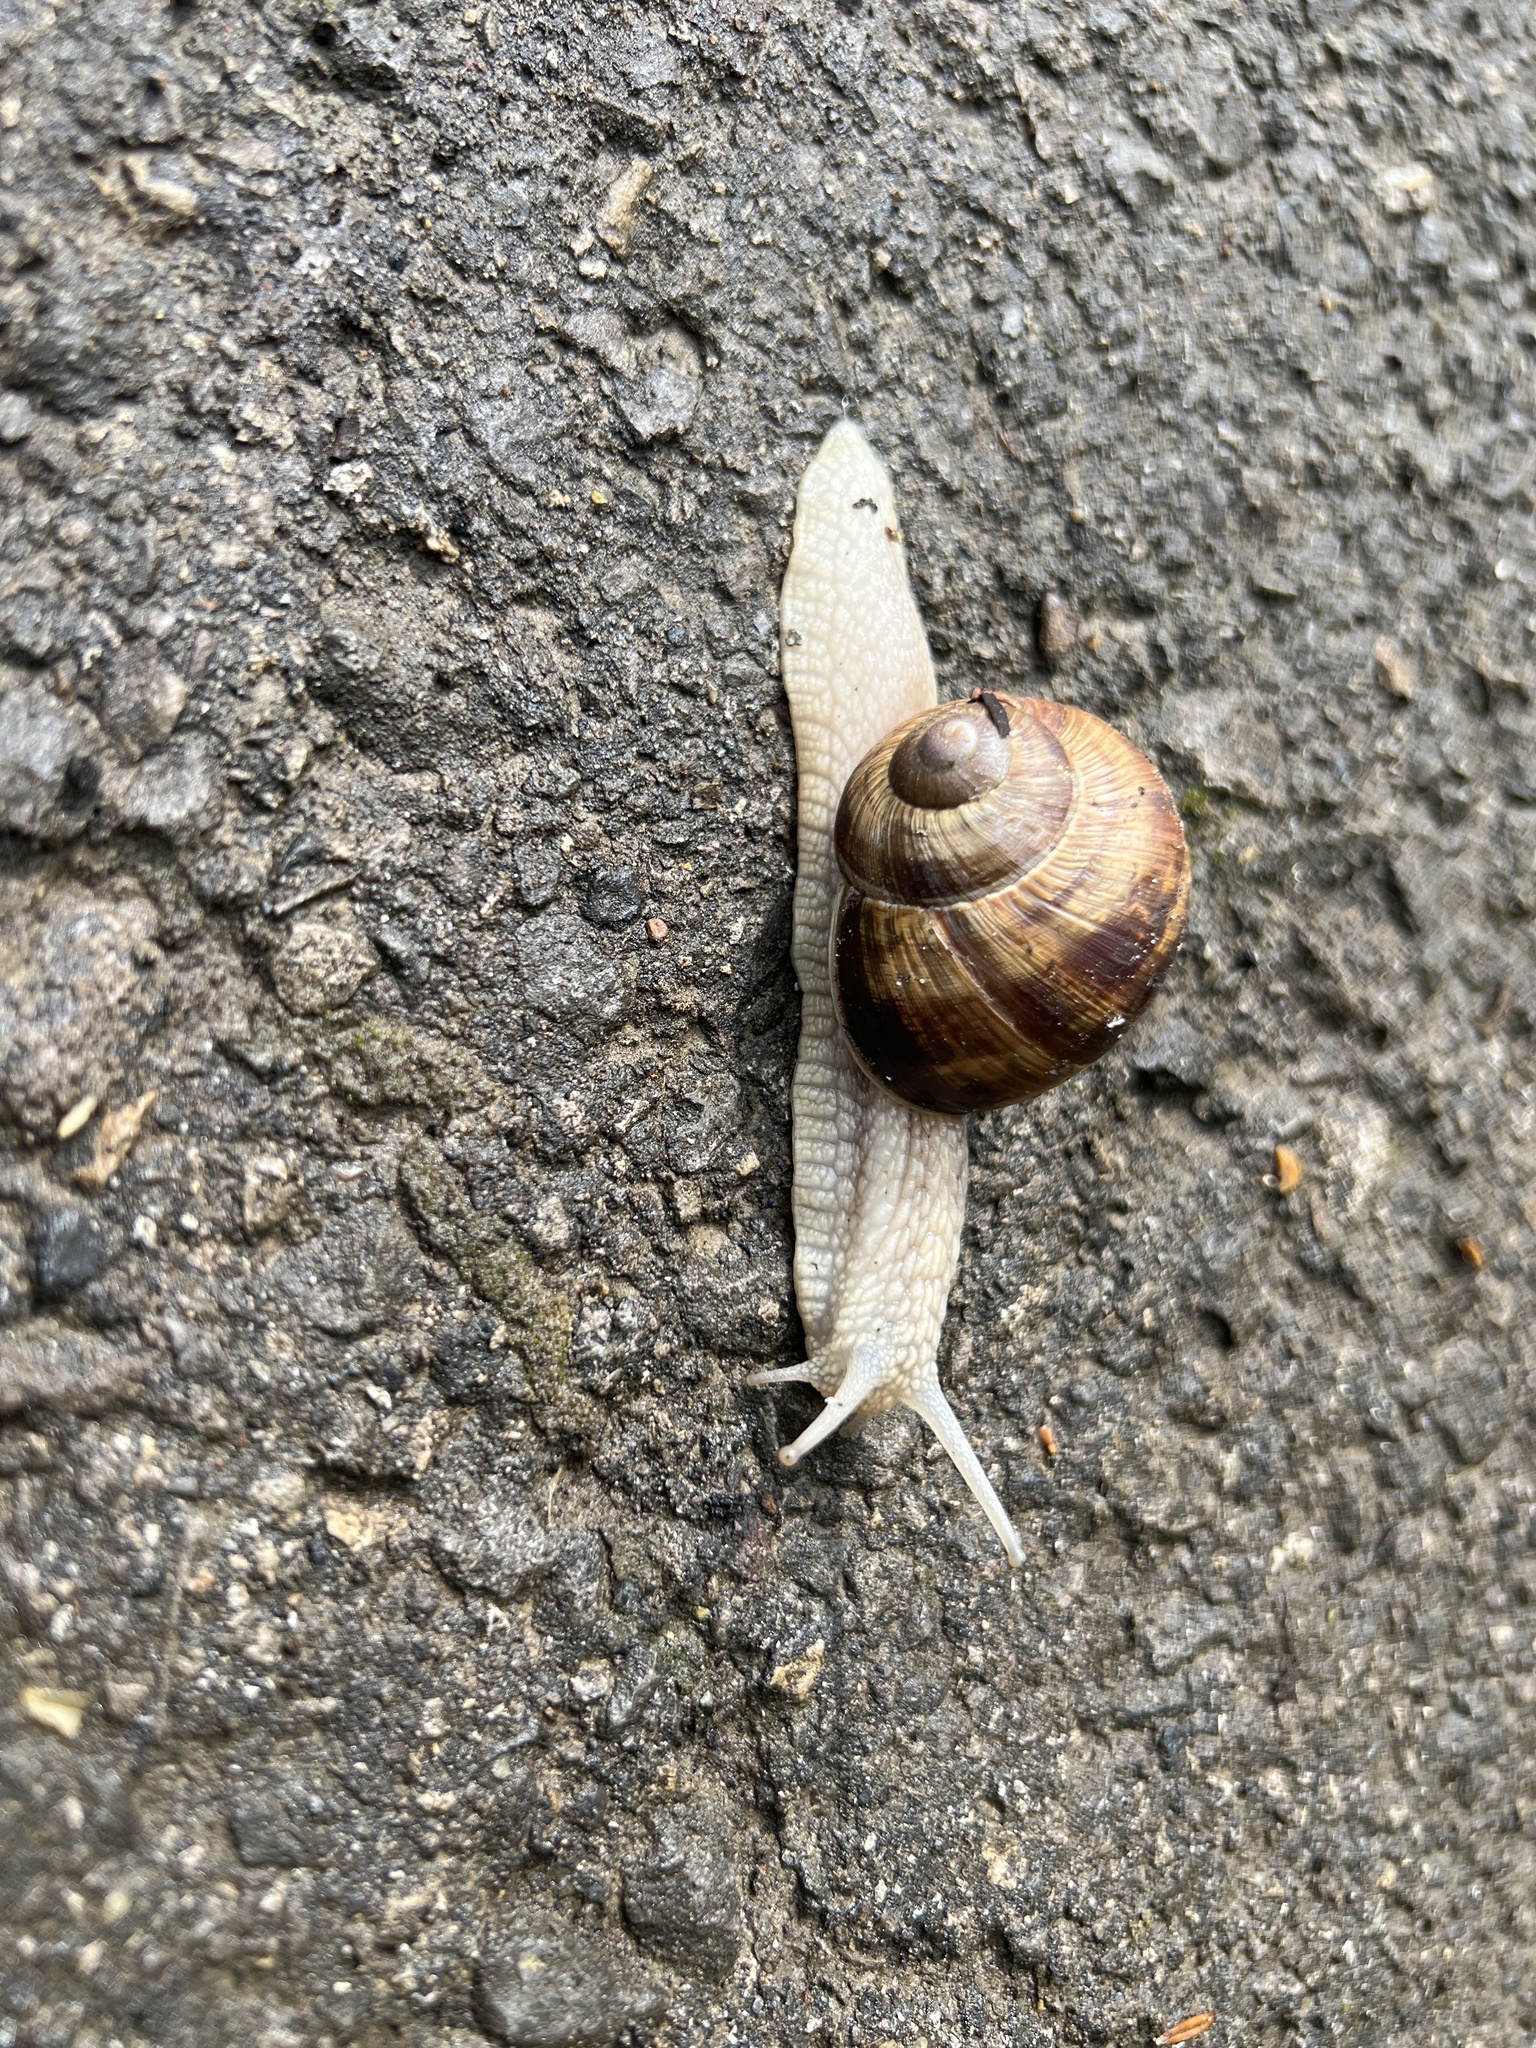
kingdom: Animalia
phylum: Mollusca
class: Gastropoda
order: Stylommatophora
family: Helicidae
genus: Helix
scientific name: Helix pomatia
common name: Roman snail
